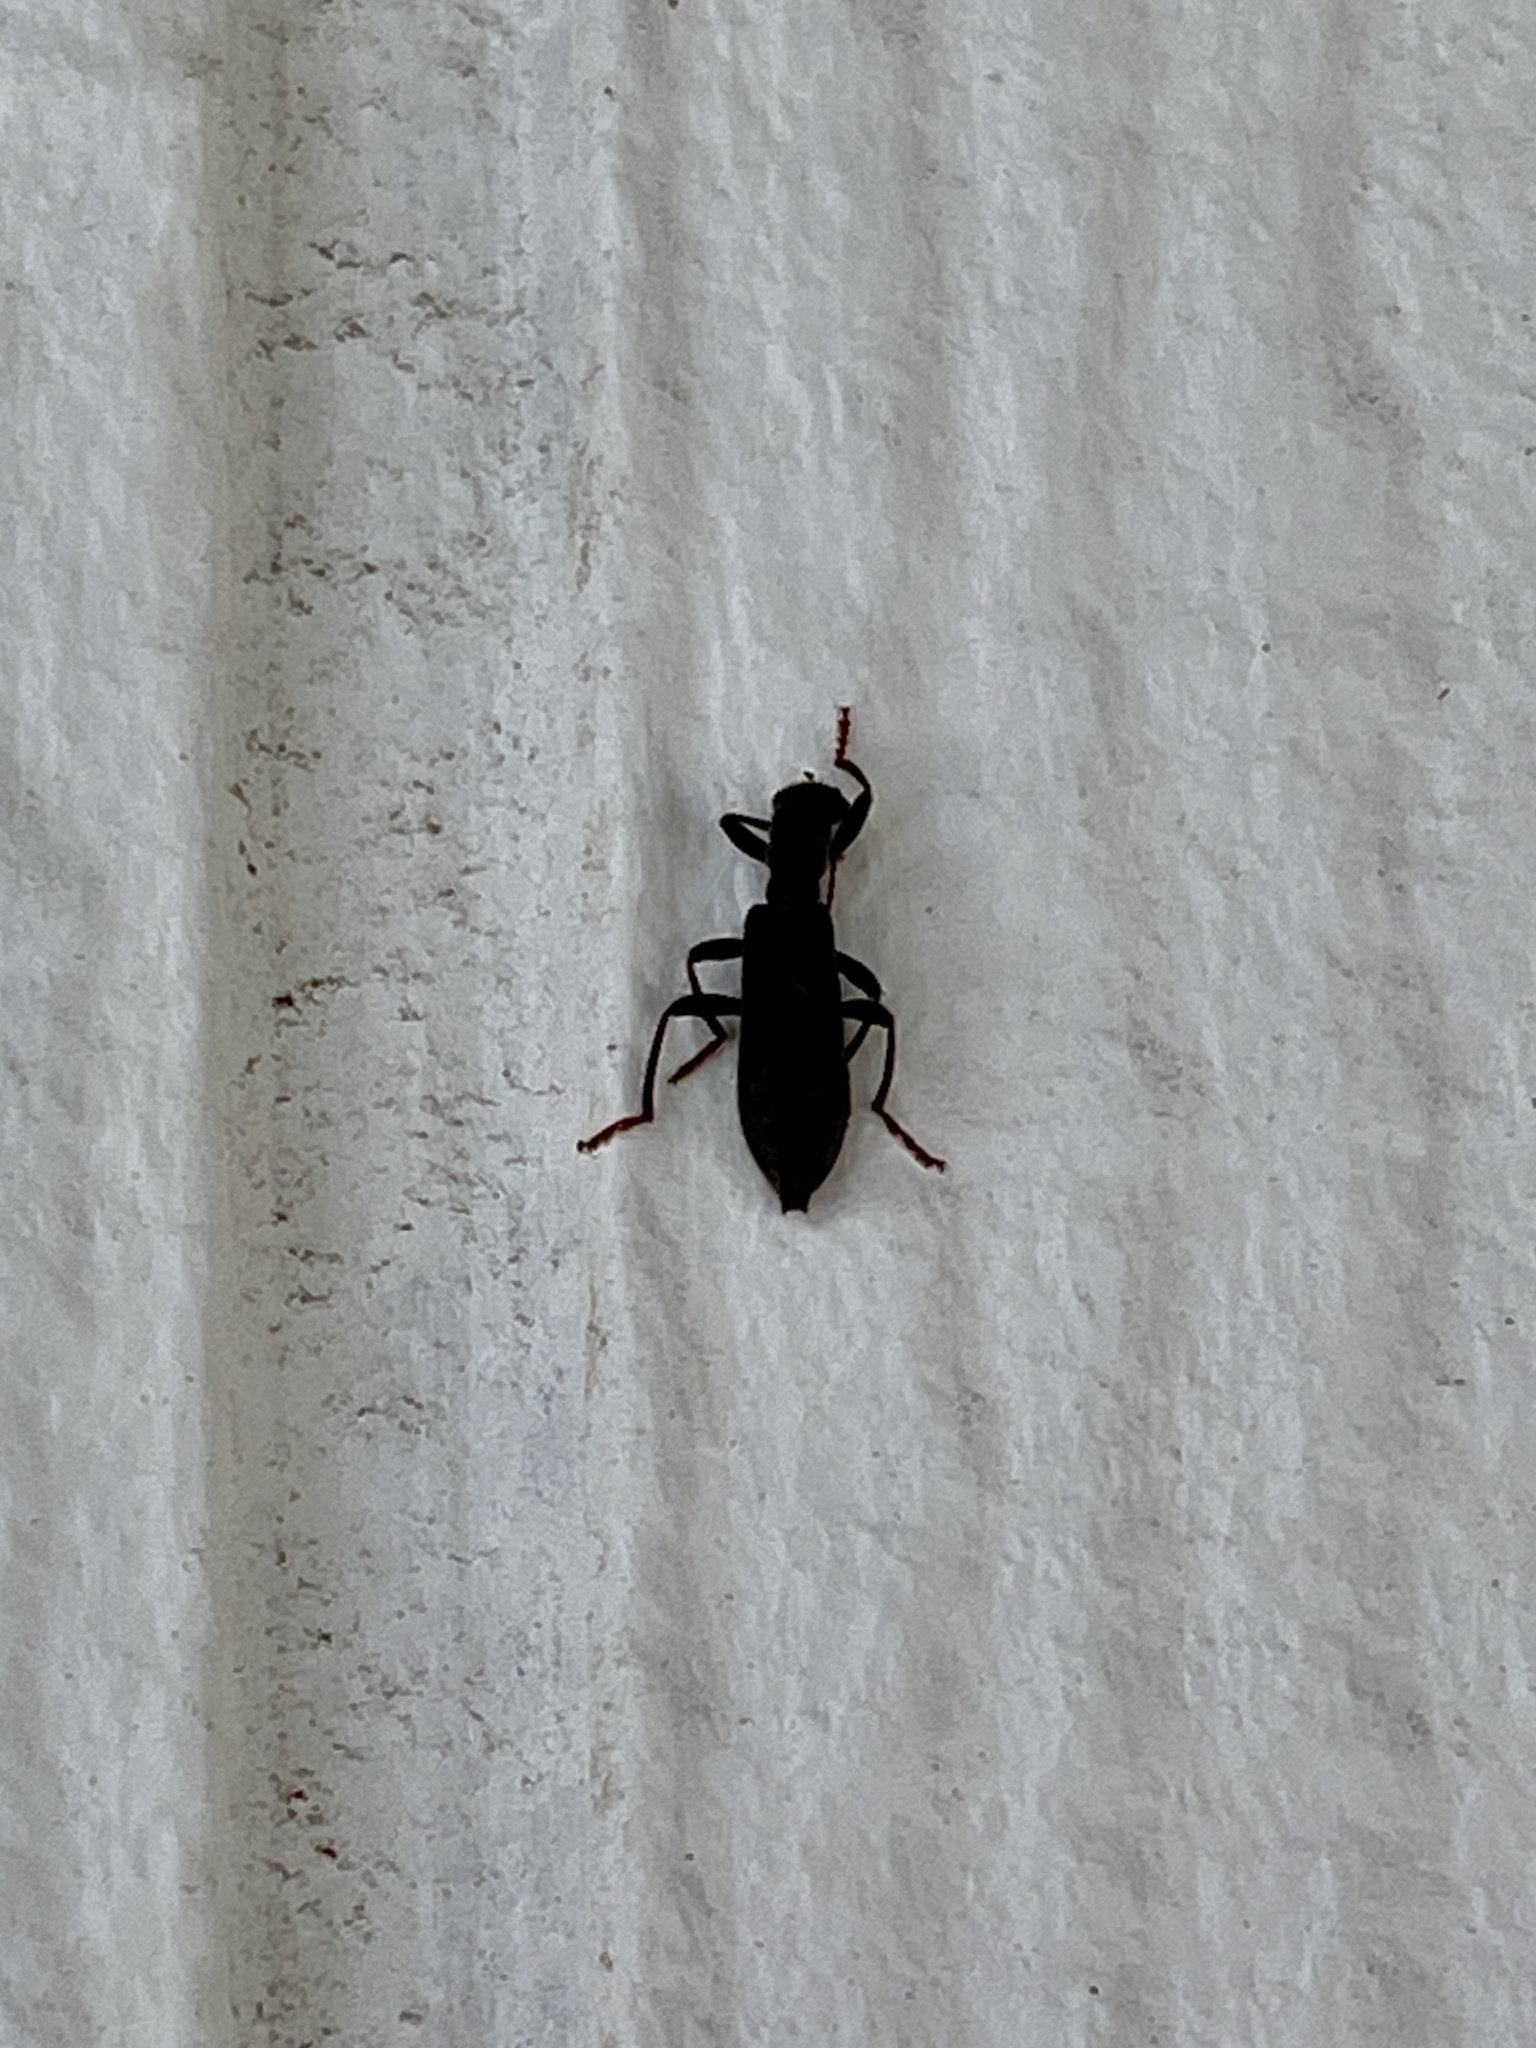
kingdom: Animalia
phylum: Arthropoda
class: Insecta
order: Coleoptera
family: Cleridae
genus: Cymatodera
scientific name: Cymatodera
